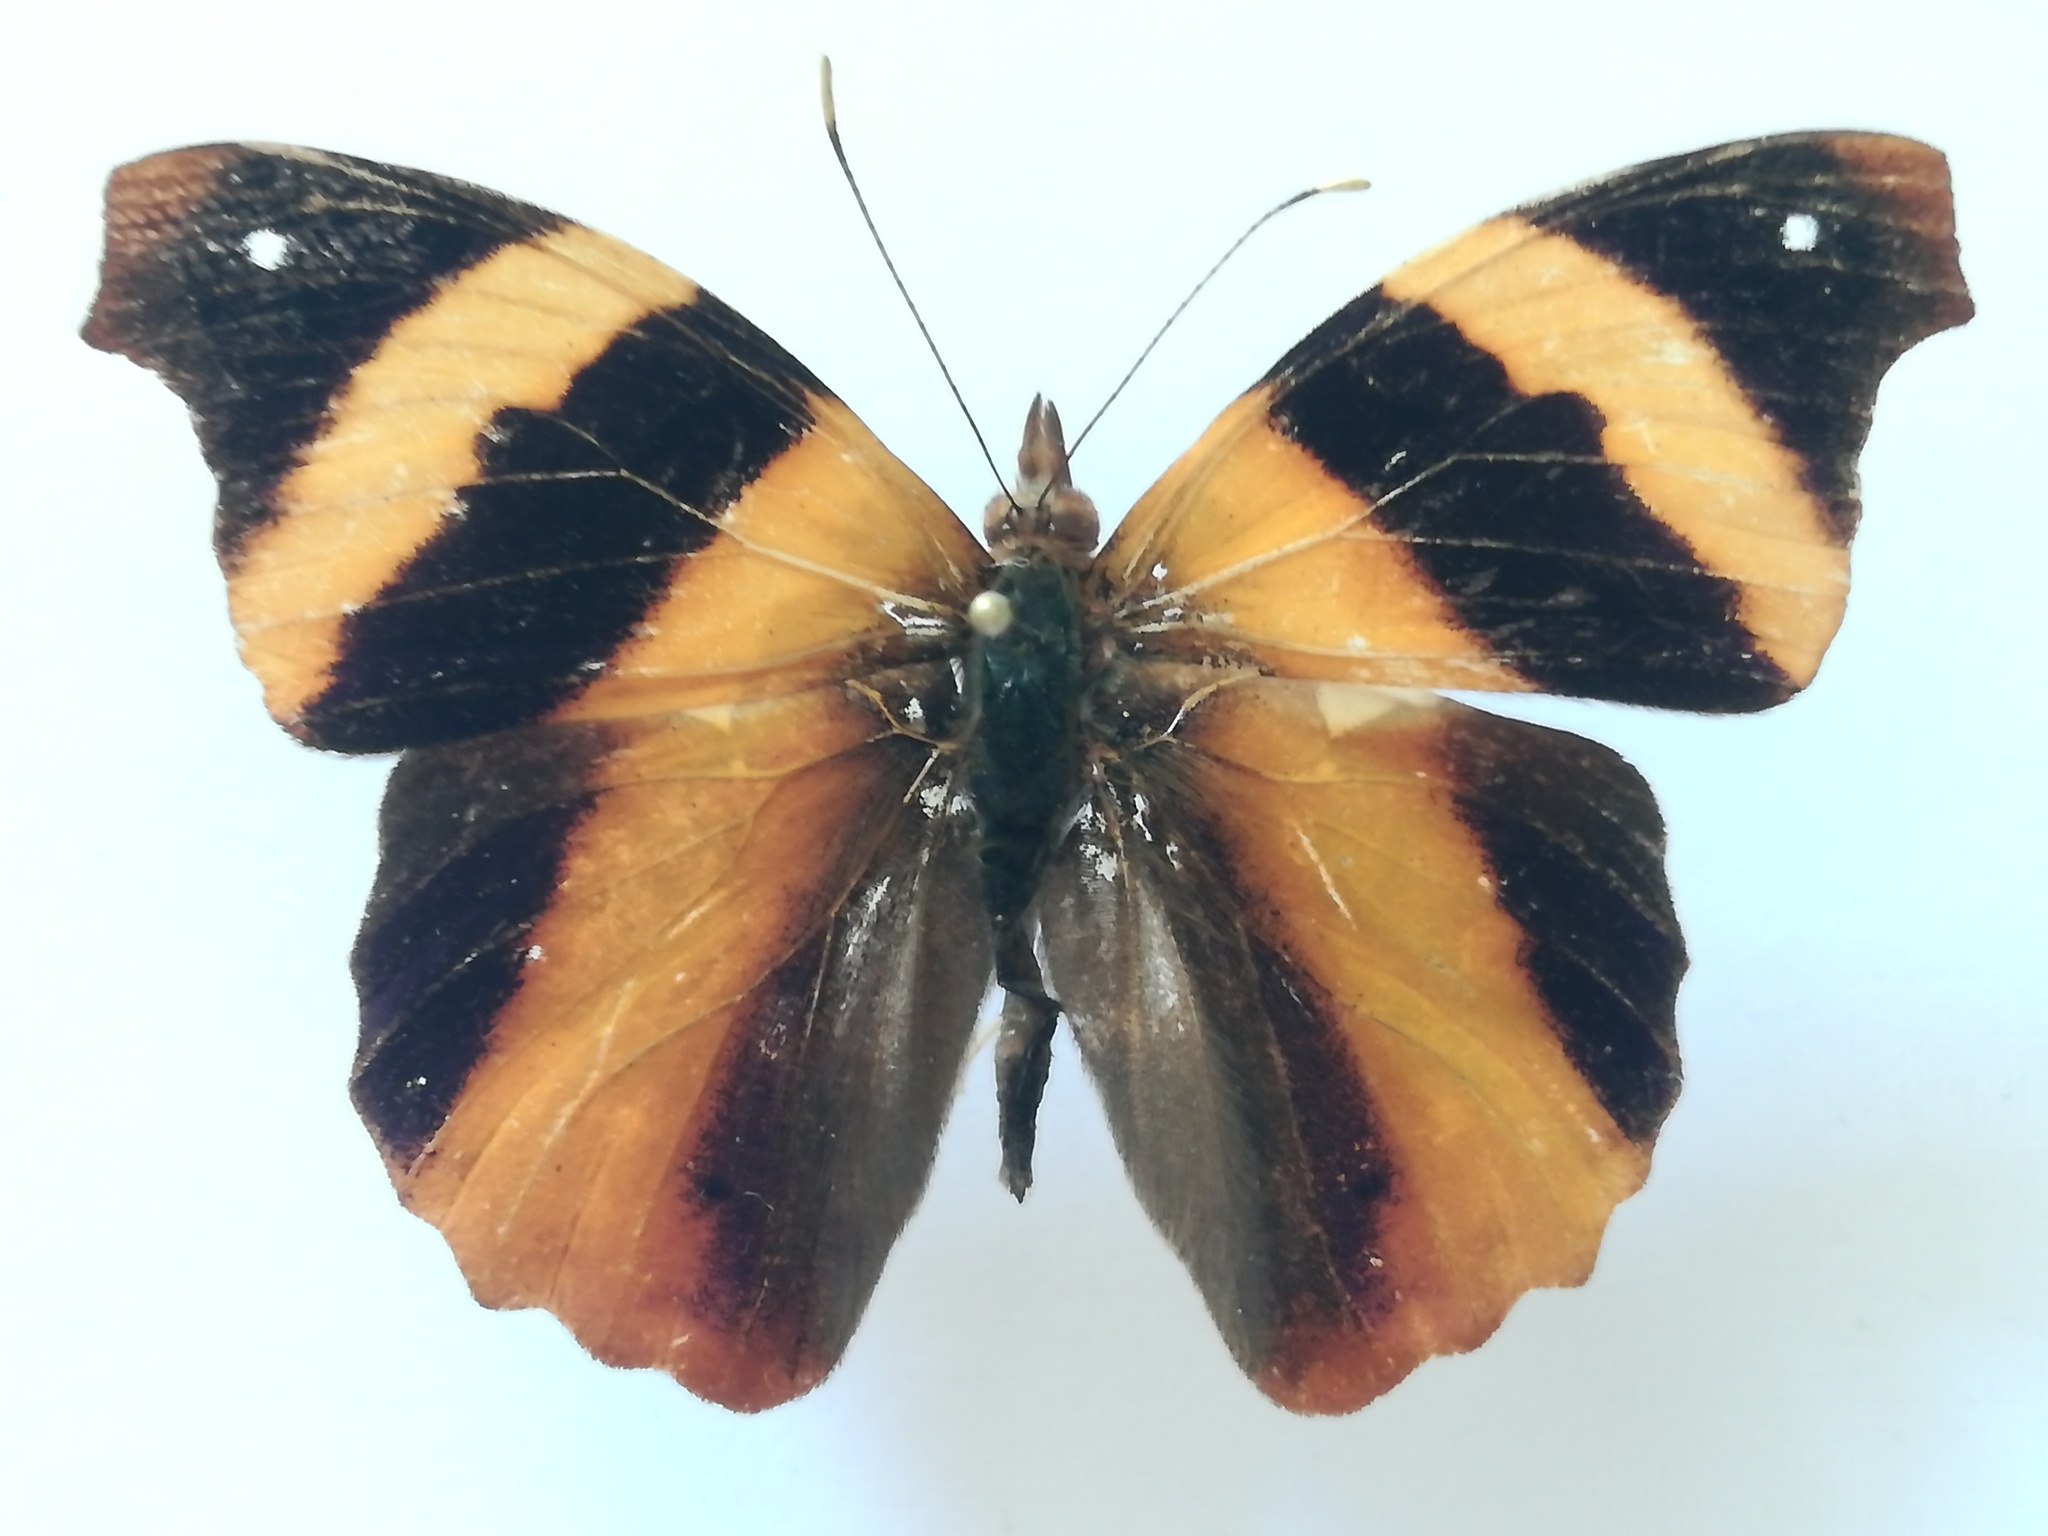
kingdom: Animalia
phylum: Arthropoda
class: Insecta
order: Lepidoptera
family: Nymphalidae
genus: Epiphile
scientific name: Epiphile adrasta
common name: Common banner
